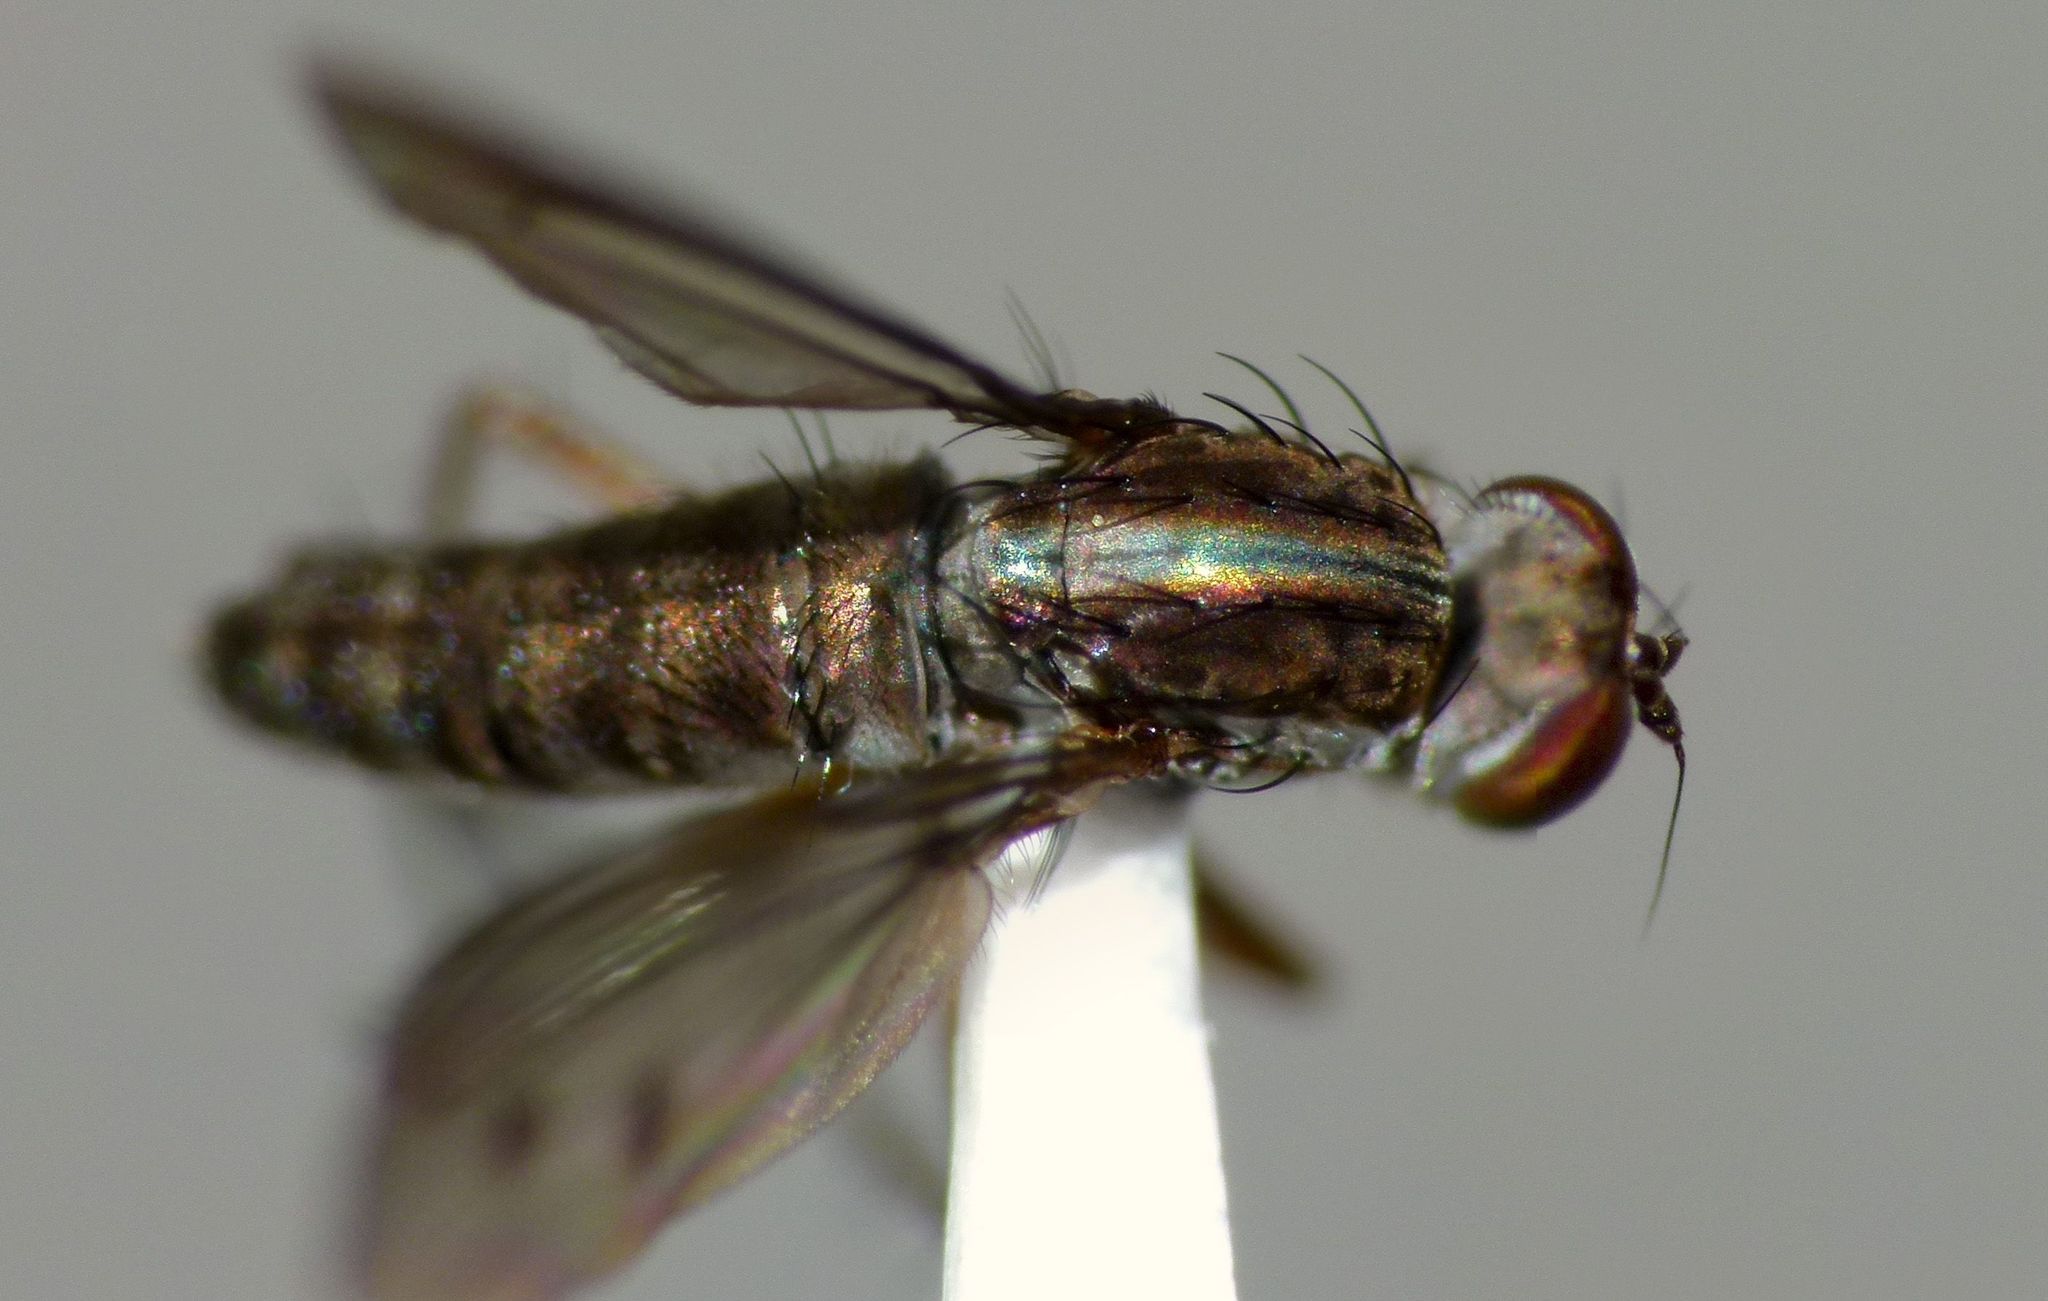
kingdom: Animalia
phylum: Arthropoda
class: Insecta
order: Diptera
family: Dolichopodidae
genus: Tetrachaetus
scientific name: Tetrachaetus bipunctatus
